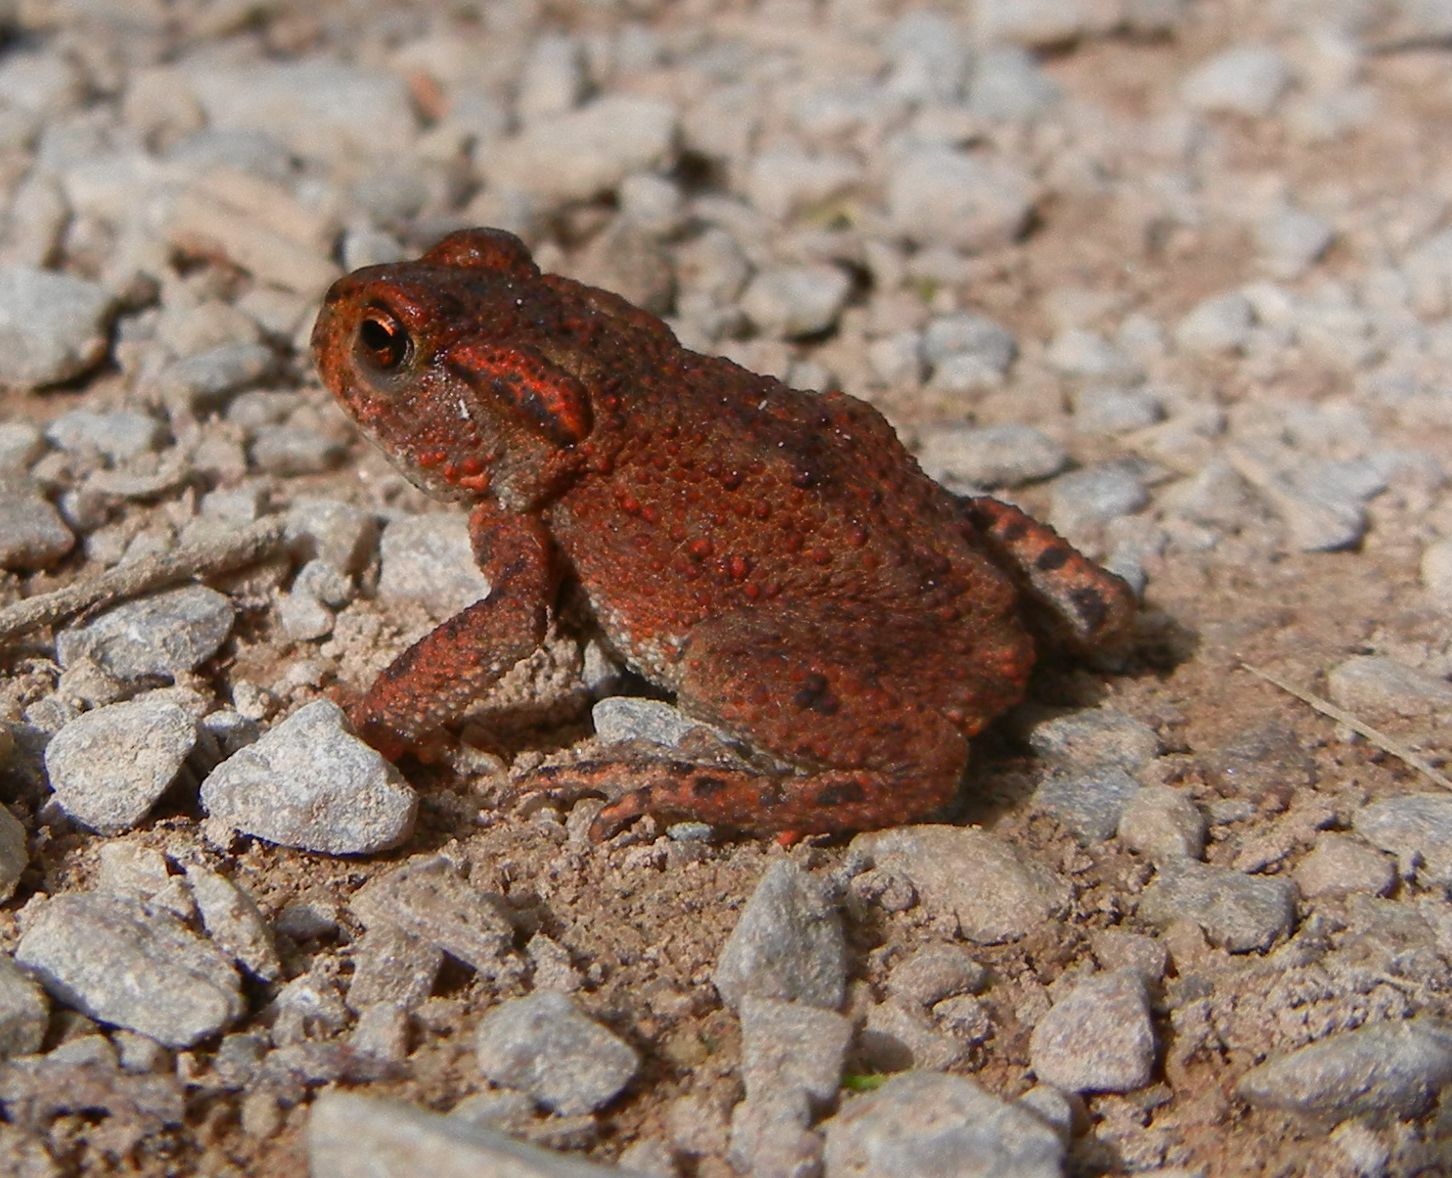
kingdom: Animalia
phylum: Chordata
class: Amphibia
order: Anura
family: Bufonidae
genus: Bufo
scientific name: Bufo bufo
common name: Common toad
